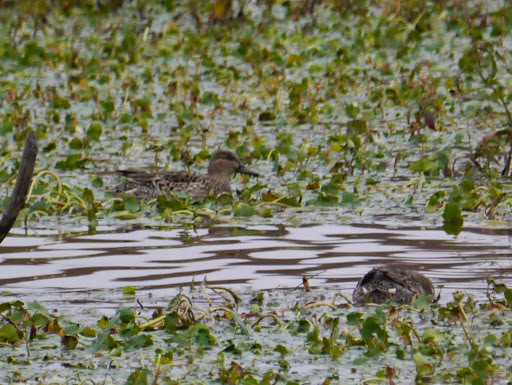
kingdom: Animalia
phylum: Chordata
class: Aves
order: Anseriformes
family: Anatidae
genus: Anas
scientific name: Anas crecca
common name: Eurasian teal
